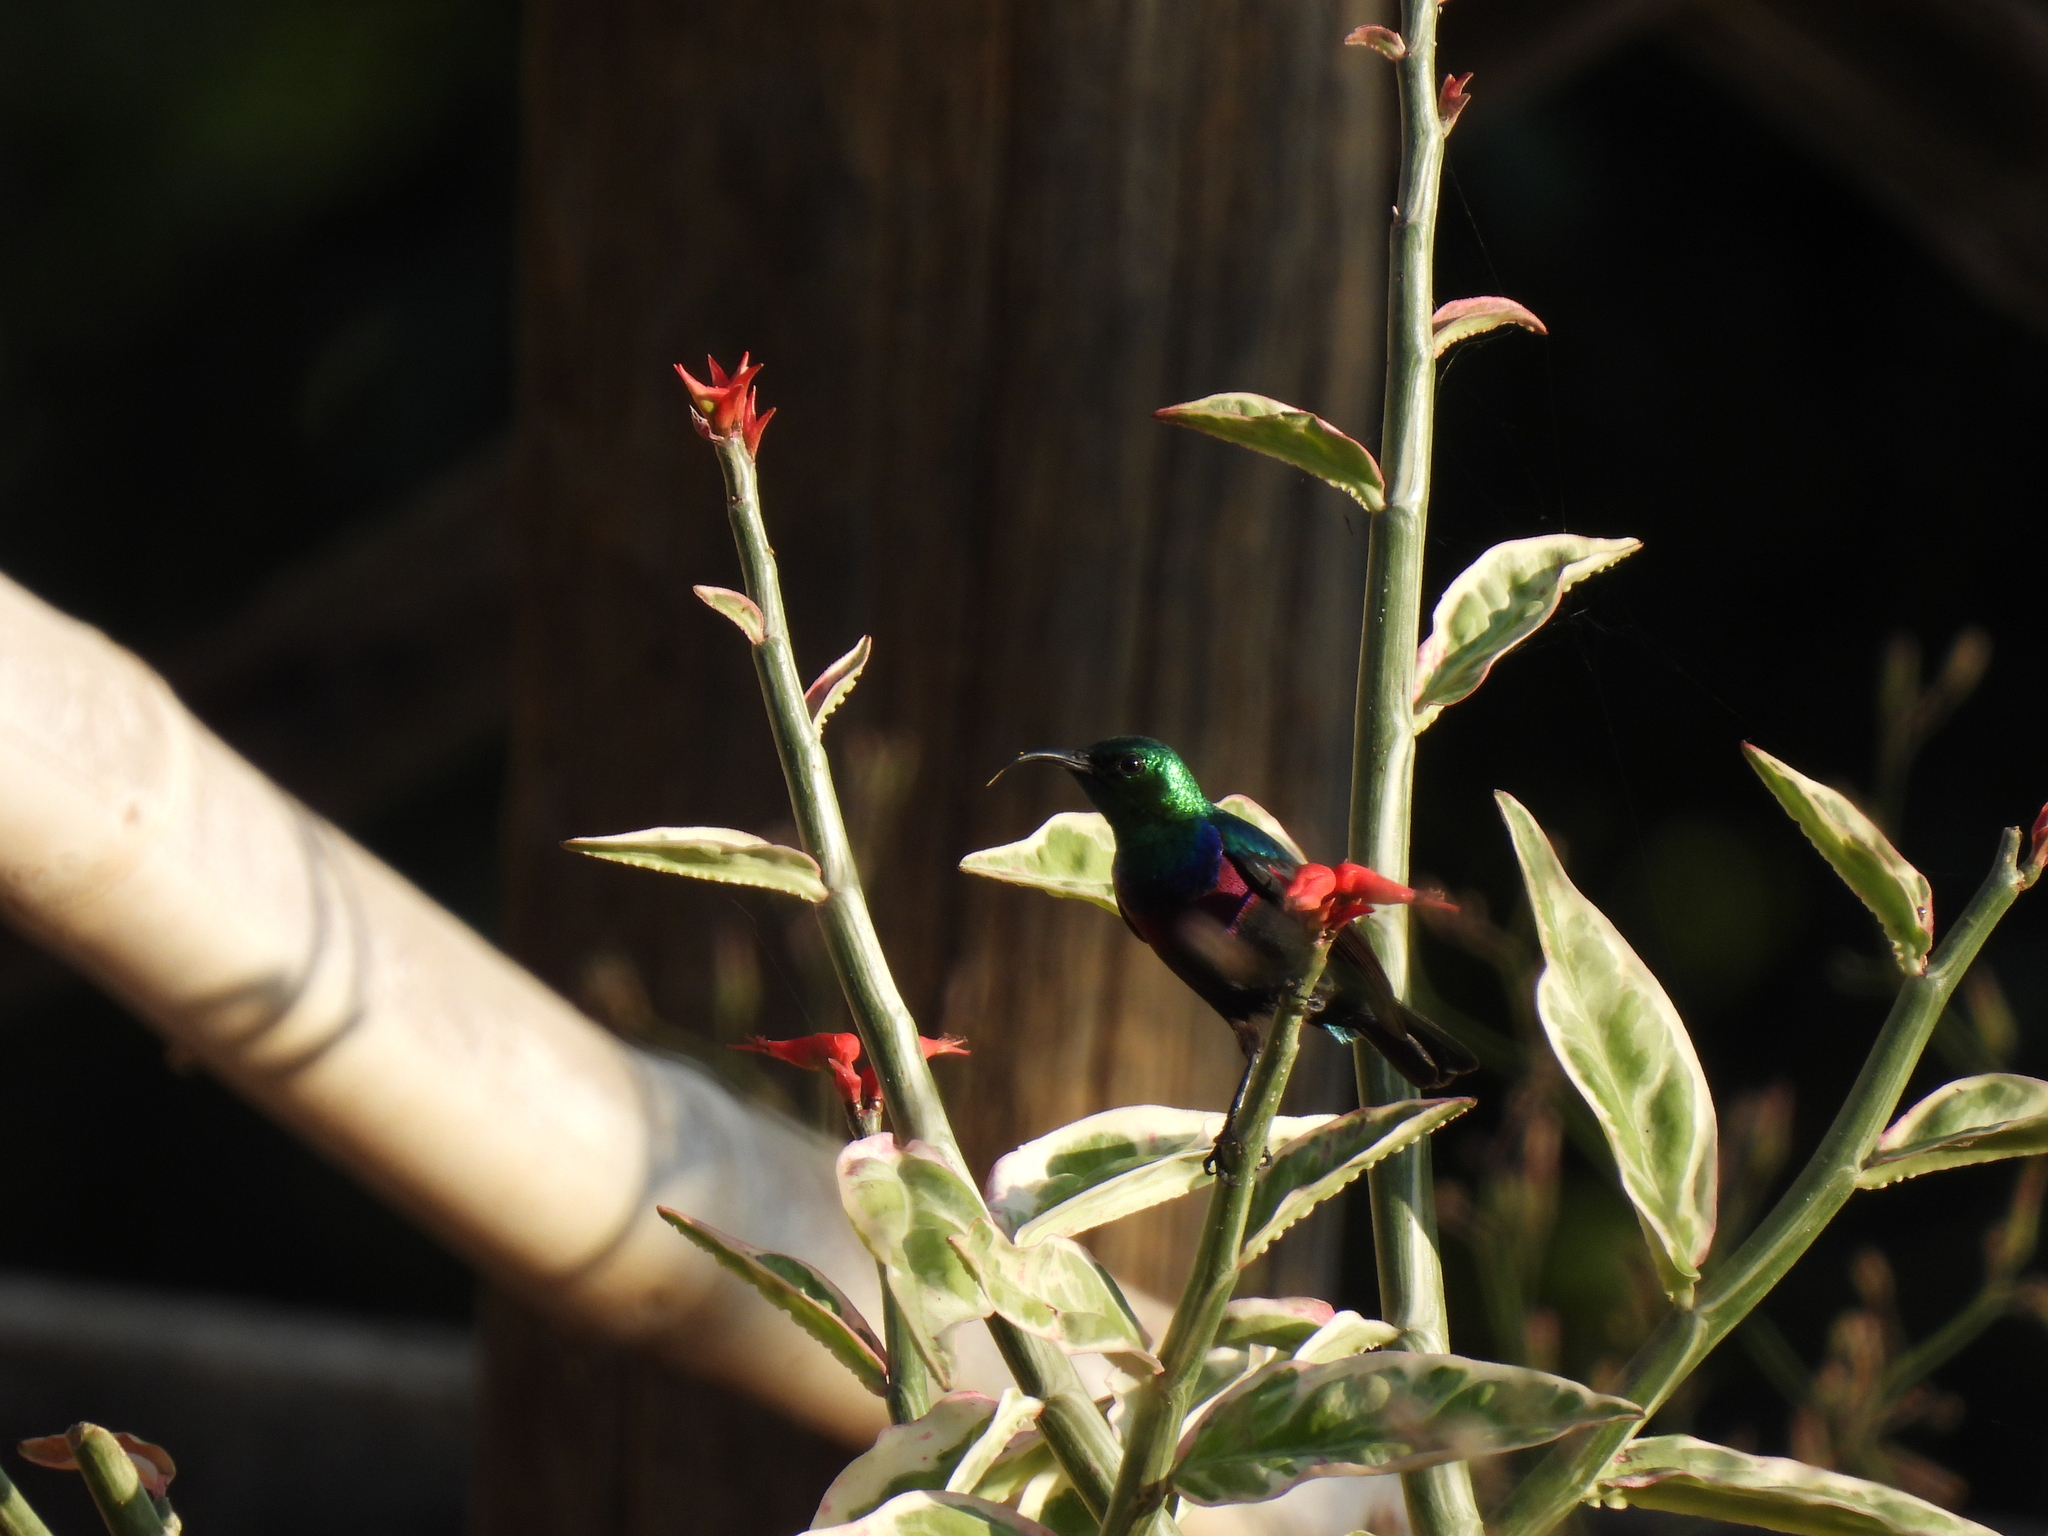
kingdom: Animalia
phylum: Chordata
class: Aves
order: Passeriformes
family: Nectariniidae
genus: Cinnyris
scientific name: Cinnyris bifasciatus
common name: Purple-banded sunbird
